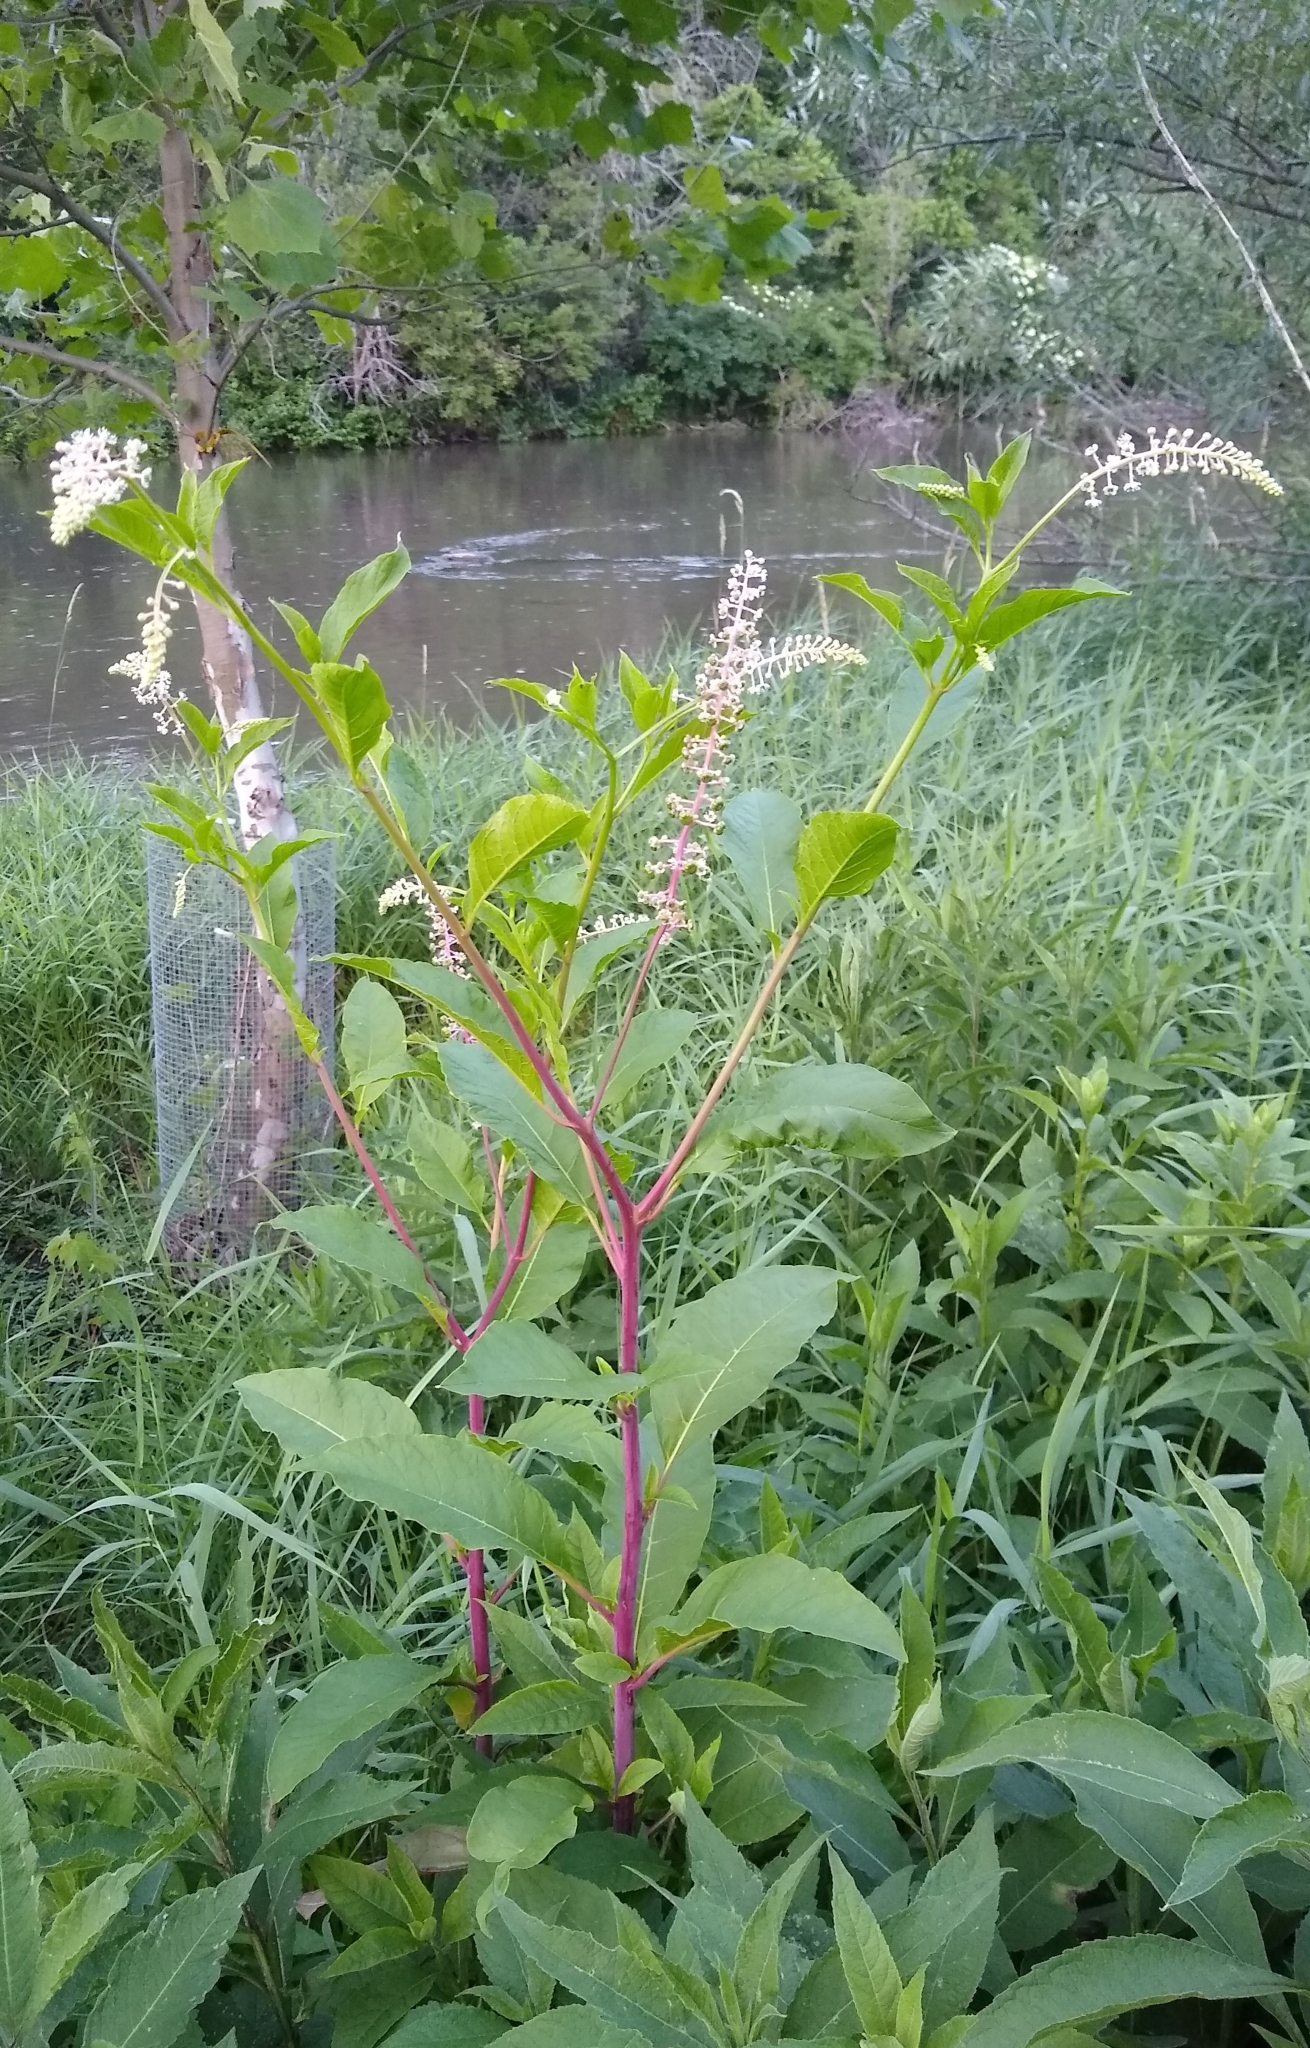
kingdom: Plantae
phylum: Tracheophyta
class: Magnoliopsida
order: Caryophyllales
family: Phytolaccaceae
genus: Phytolacca
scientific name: Phytolacca americana
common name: American pokeweed
